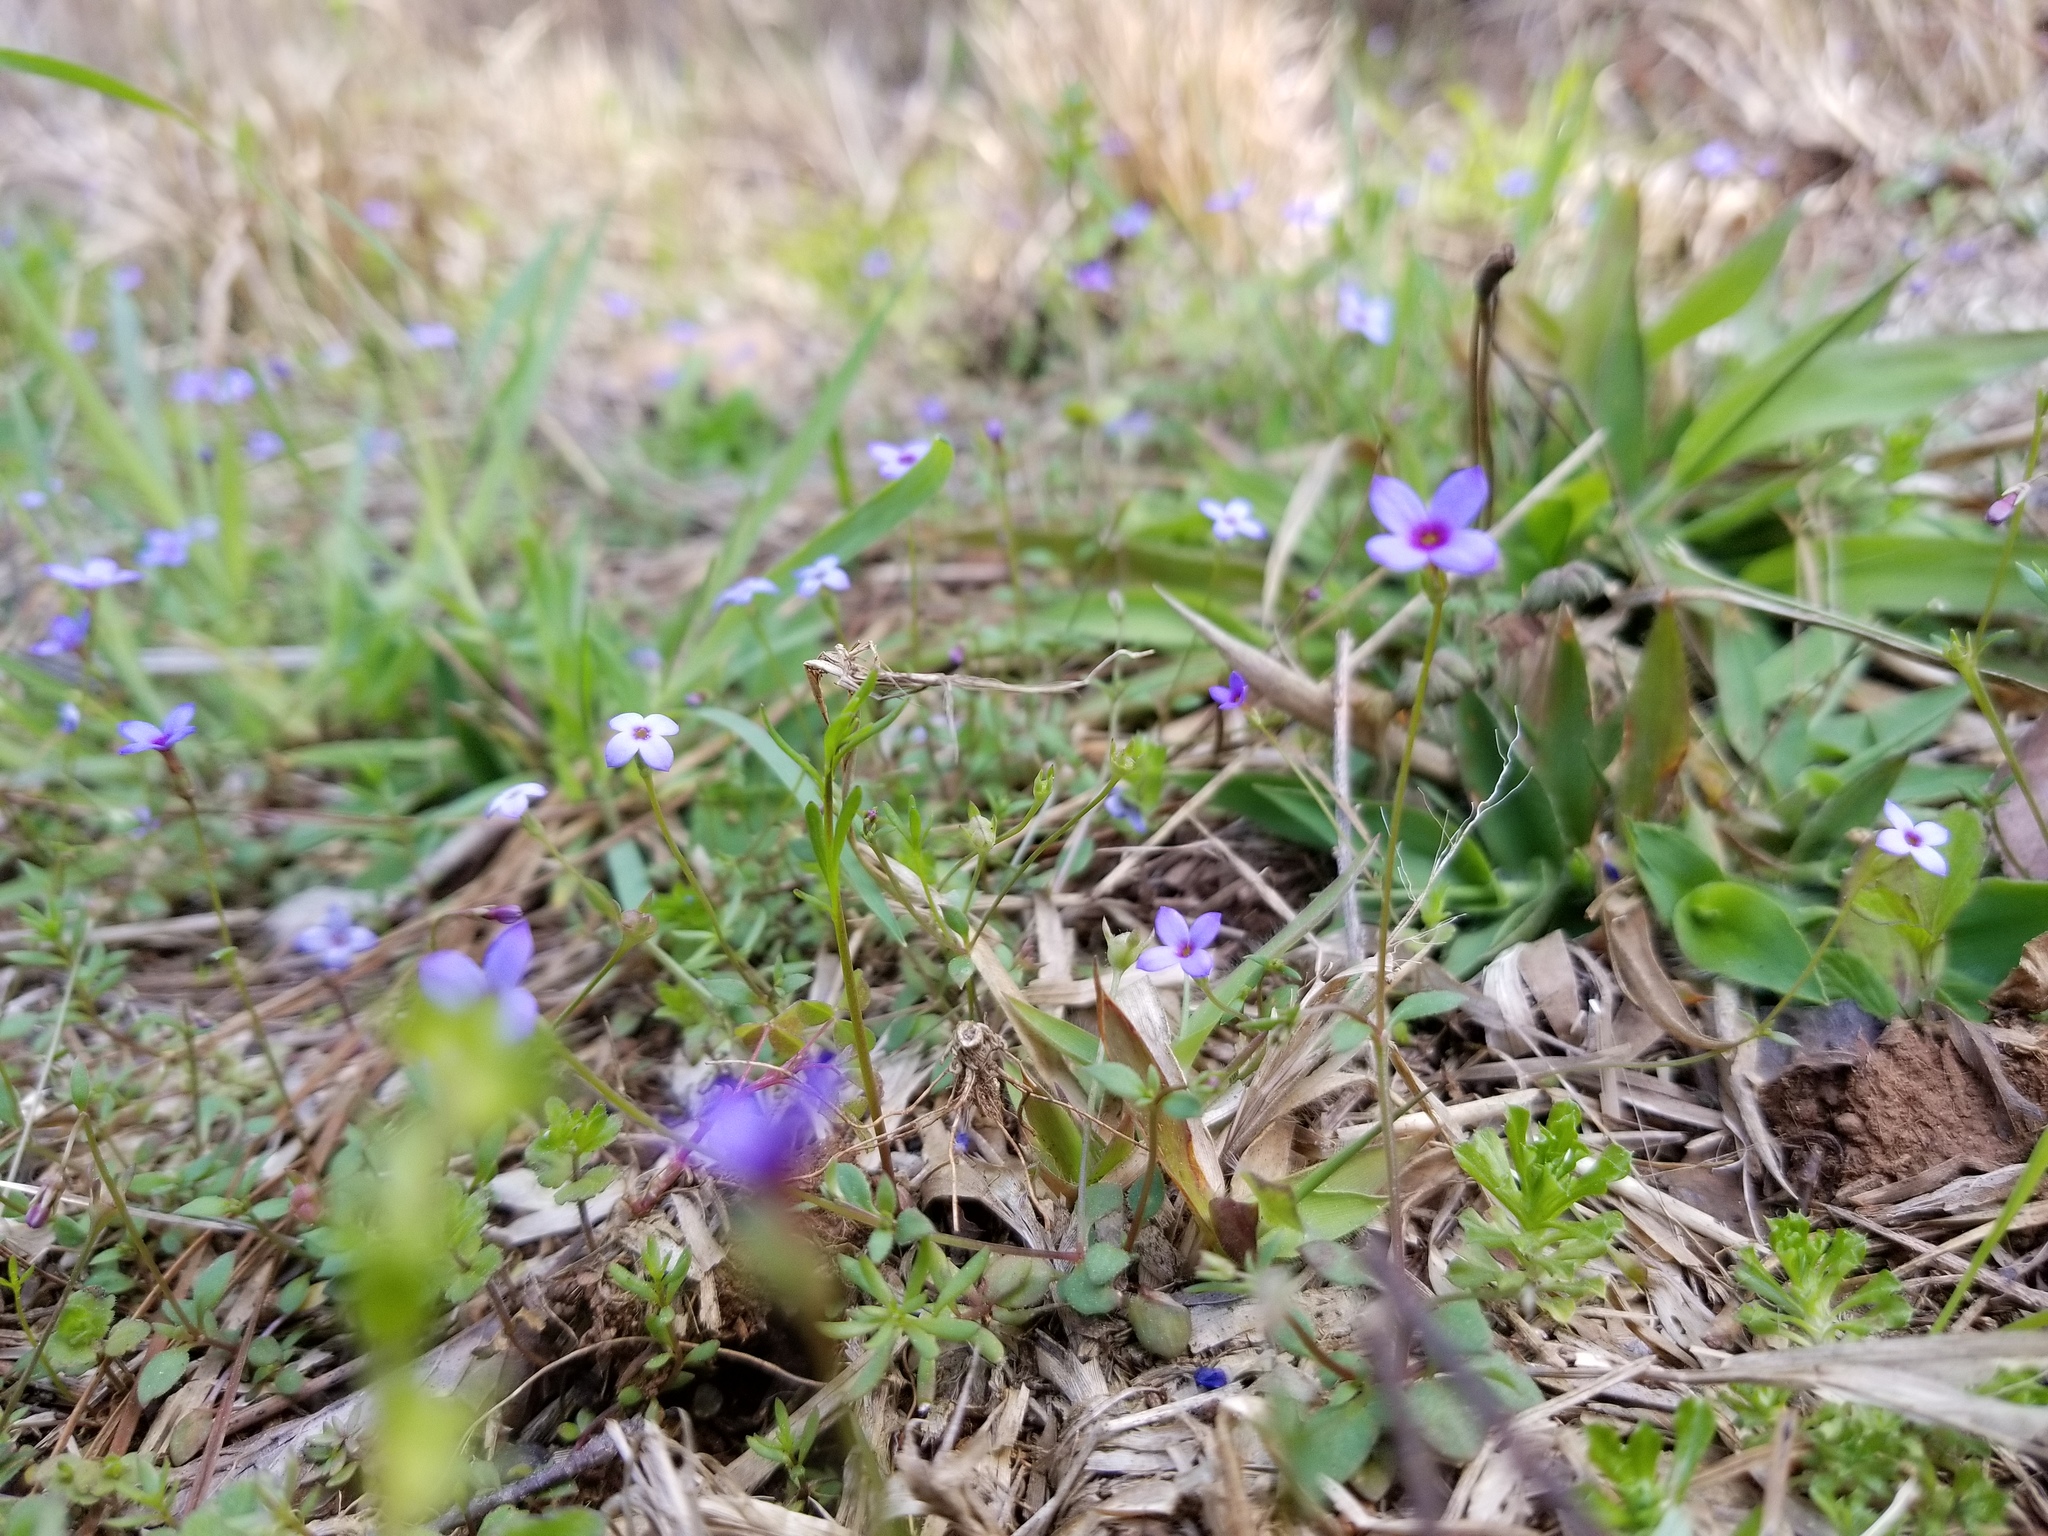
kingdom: Plantae
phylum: Tracheophyta
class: Magnoliopsida
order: Gentianales
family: Rubiaceae
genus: Houstonia
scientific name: Houstonia pusilla
